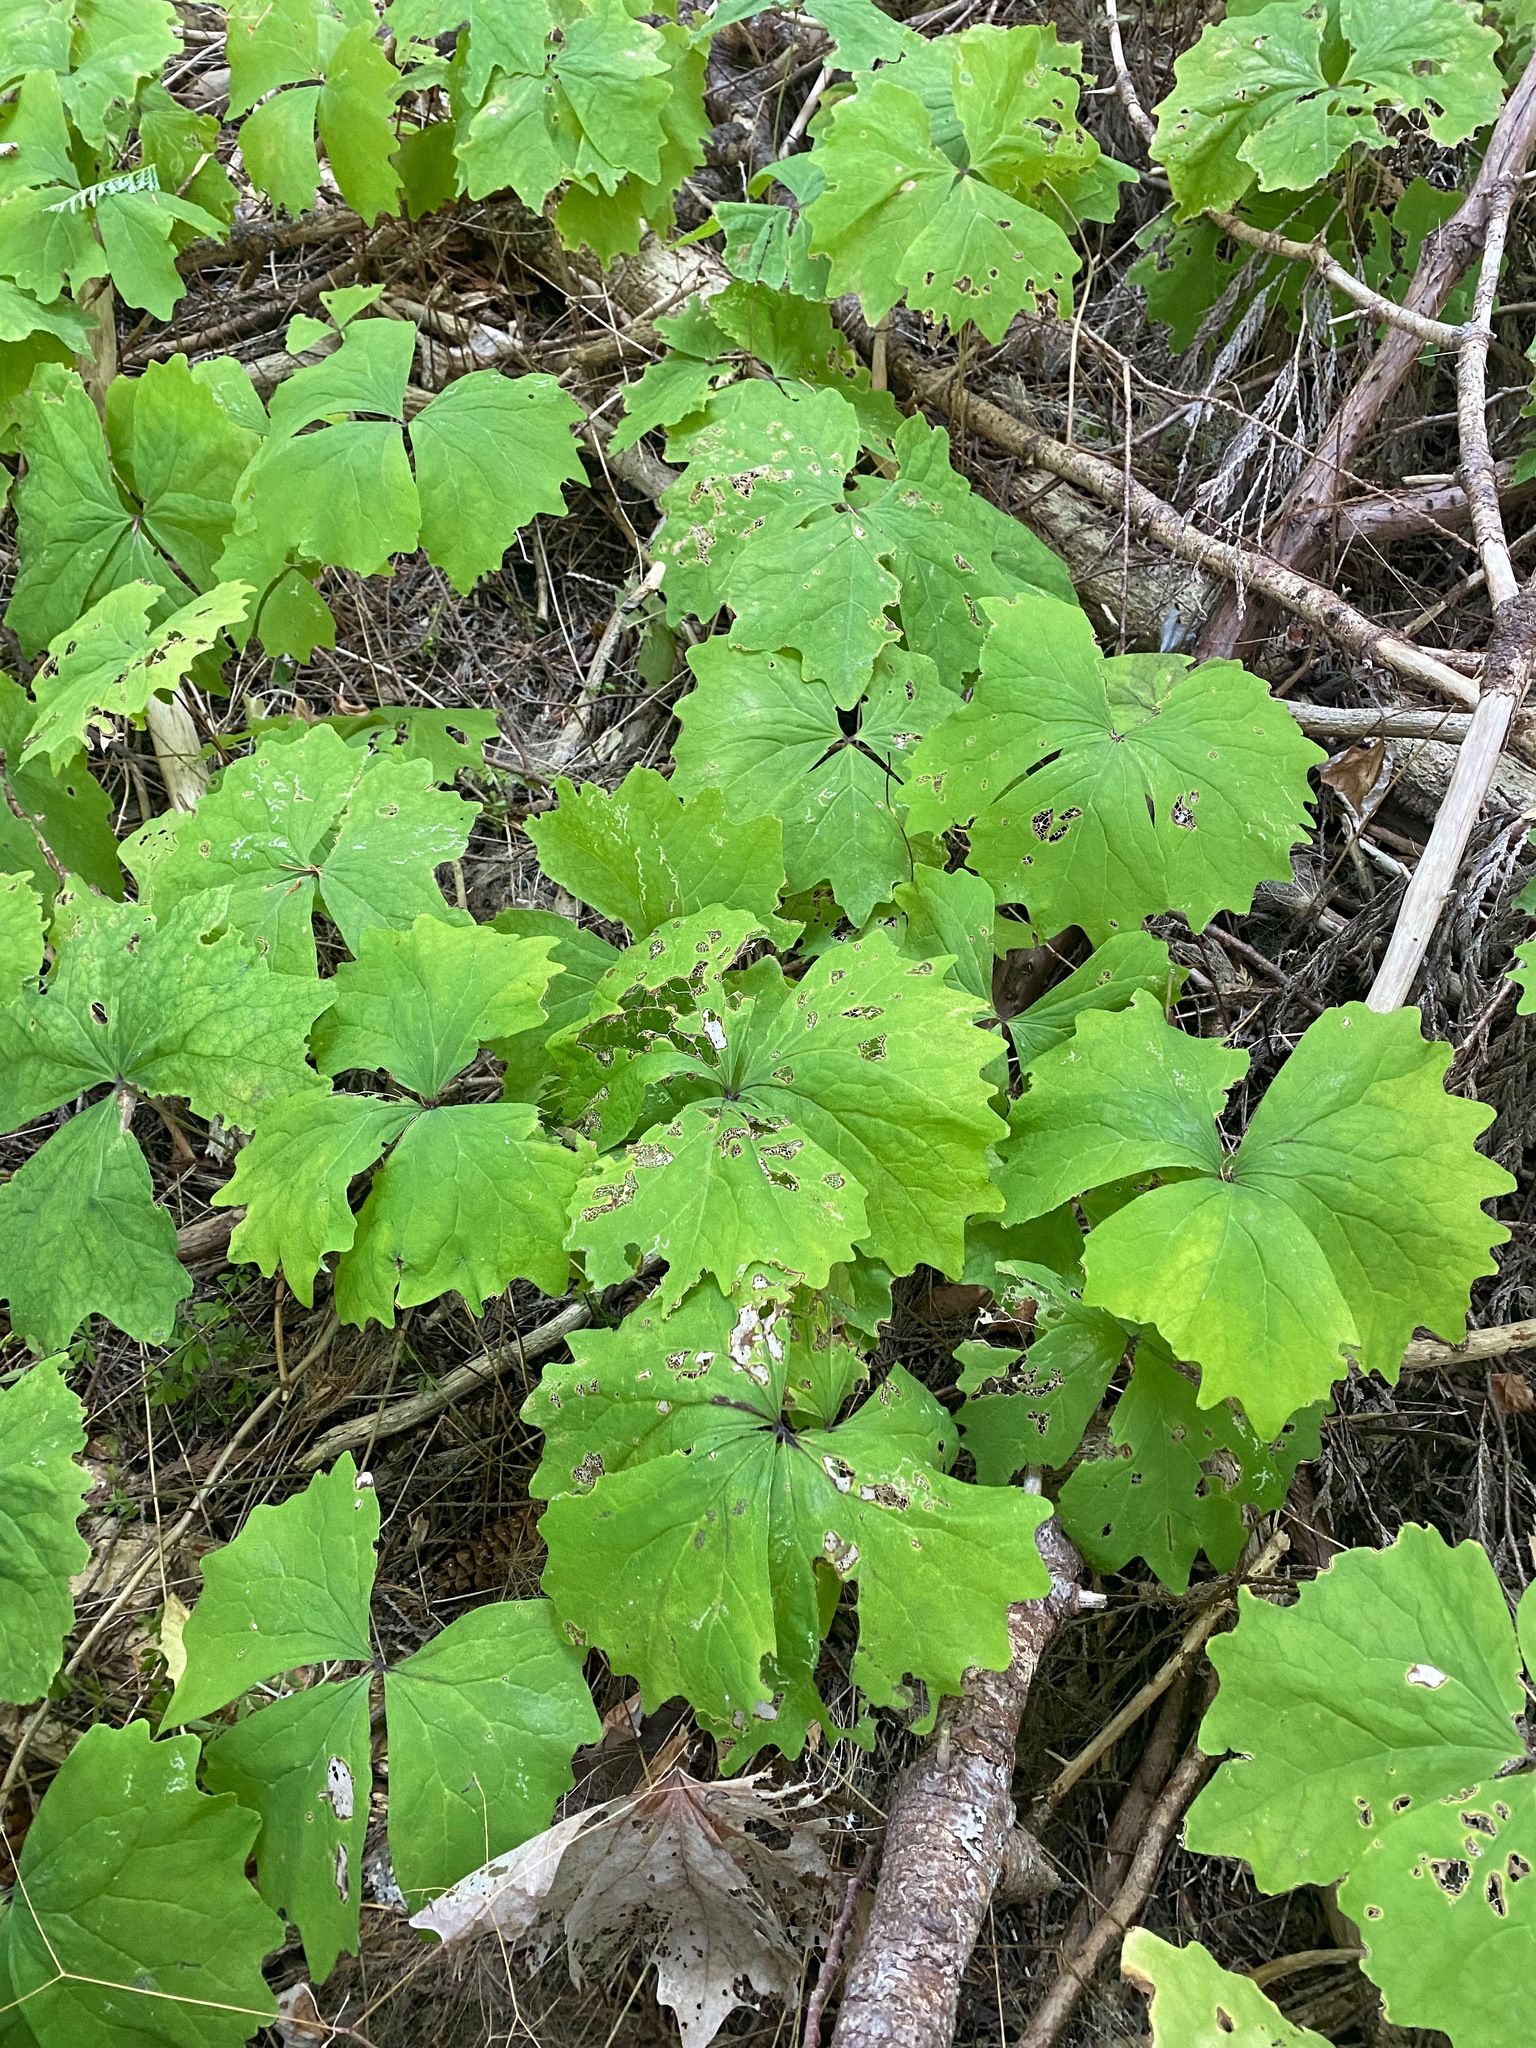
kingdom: Plantae
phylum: Tracheophyta
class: Magnoliopsida
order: Ranunculales
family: Berberidaceae
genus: Achlys
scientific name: Achlys triphylla
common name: Vanilla-leaf
